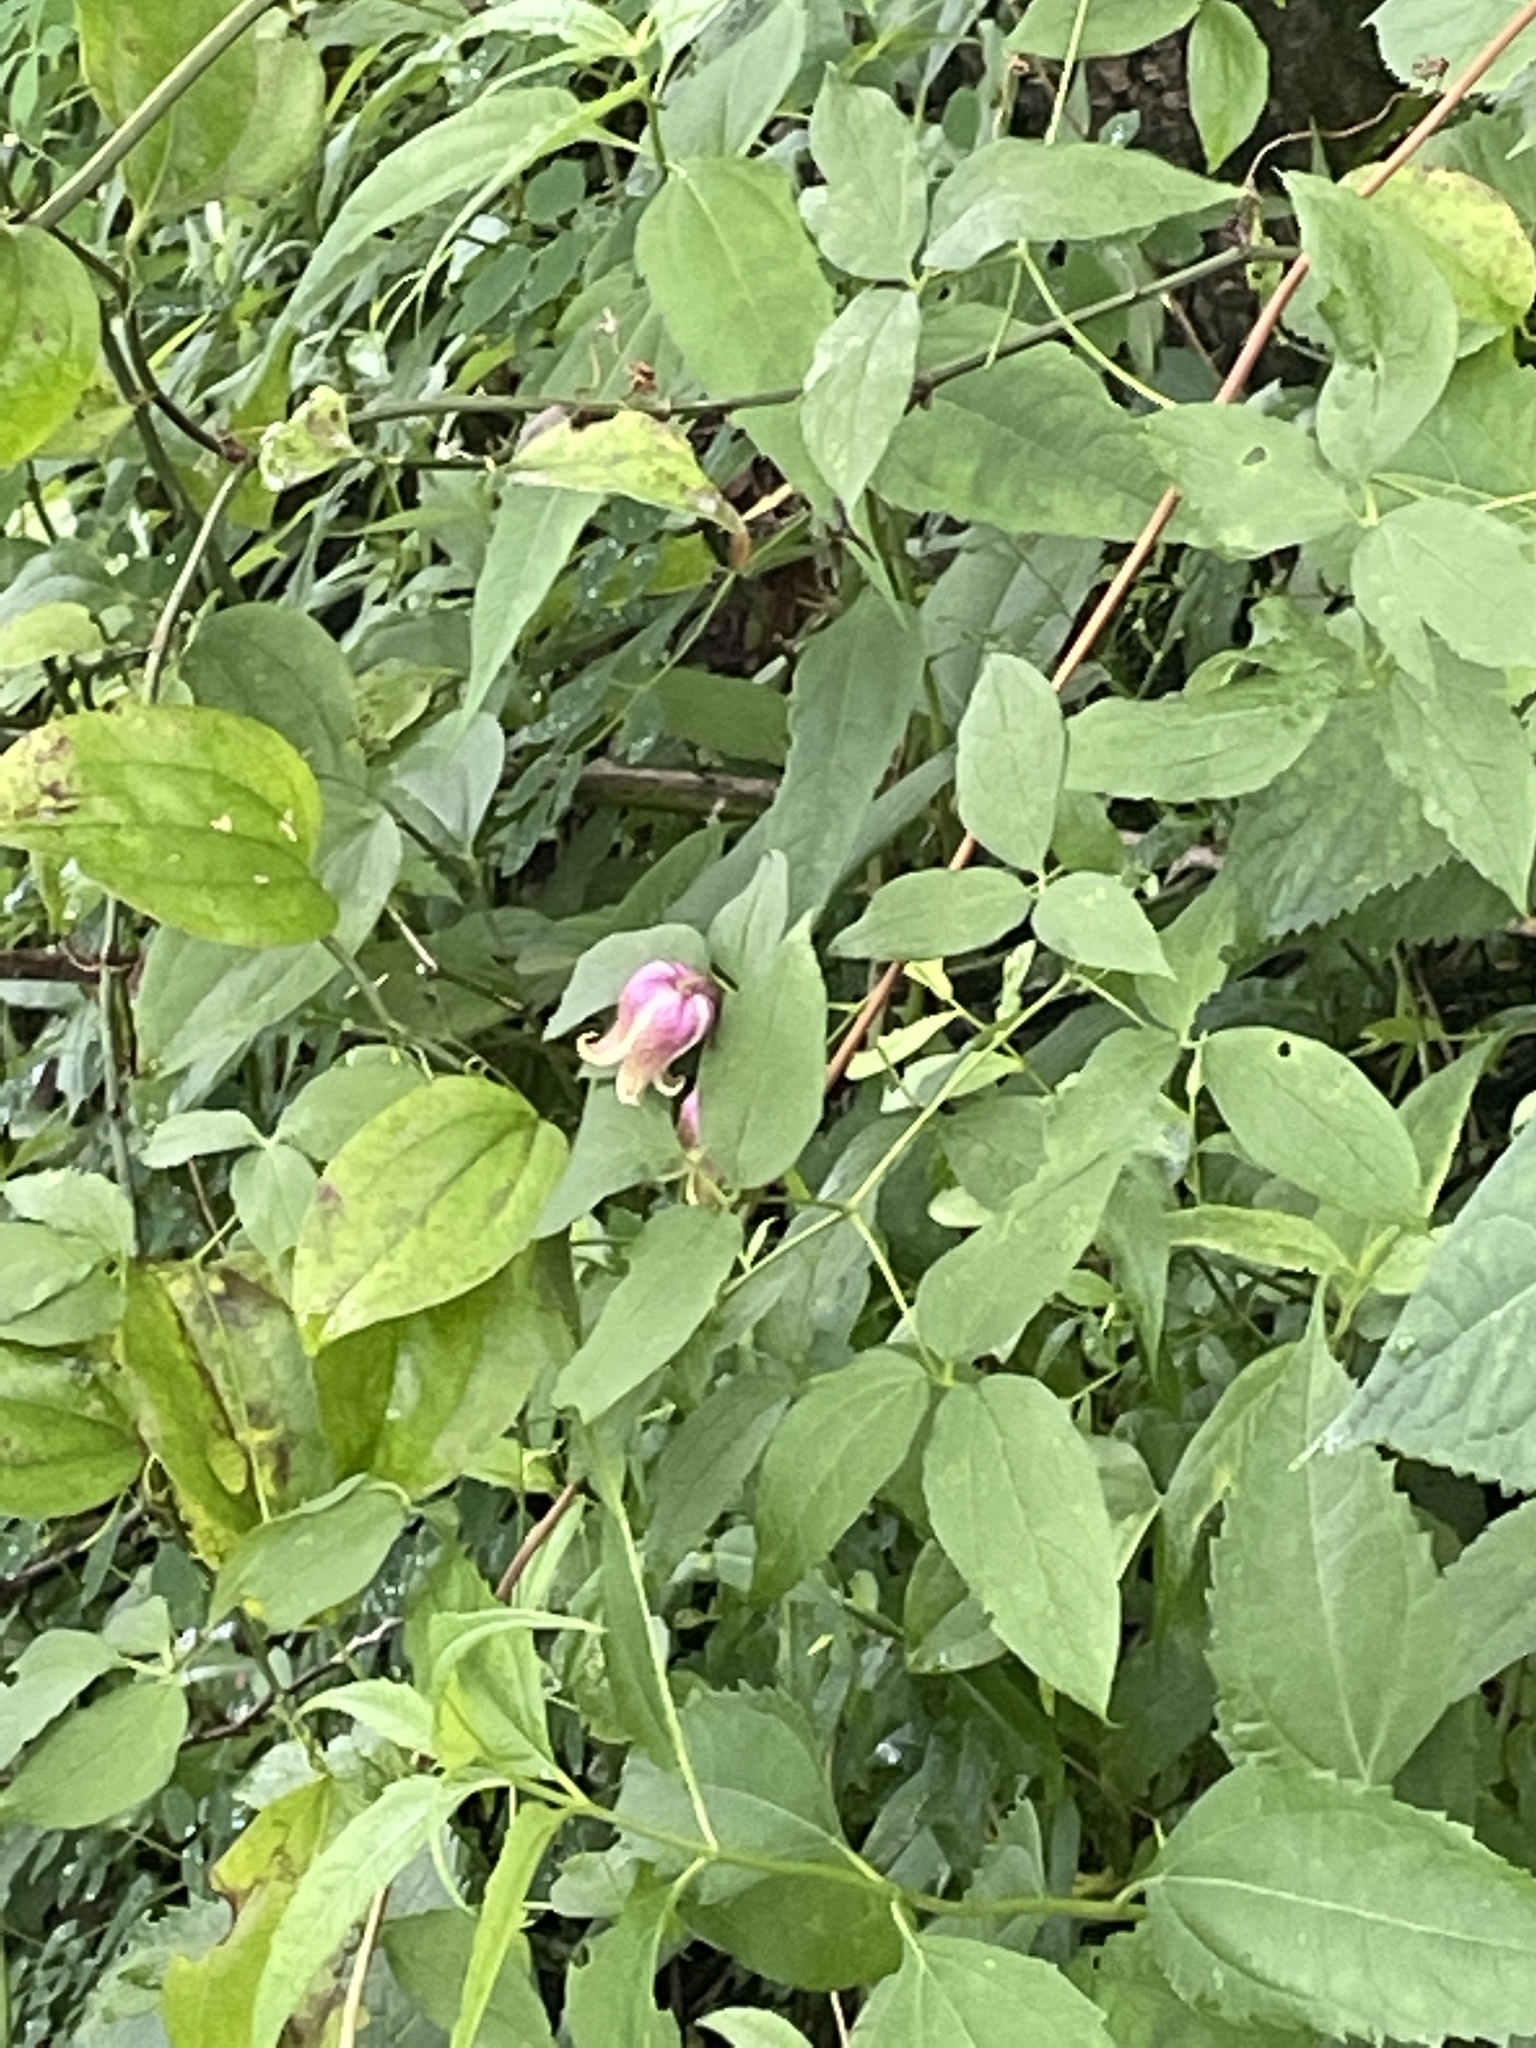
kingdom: Plantae
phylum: Tracheophyta
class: Magnoliopsida
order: Ranunculales
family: Ranunculaceae
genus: Clematis
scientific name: Clematis viorna
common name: Leather-flower
